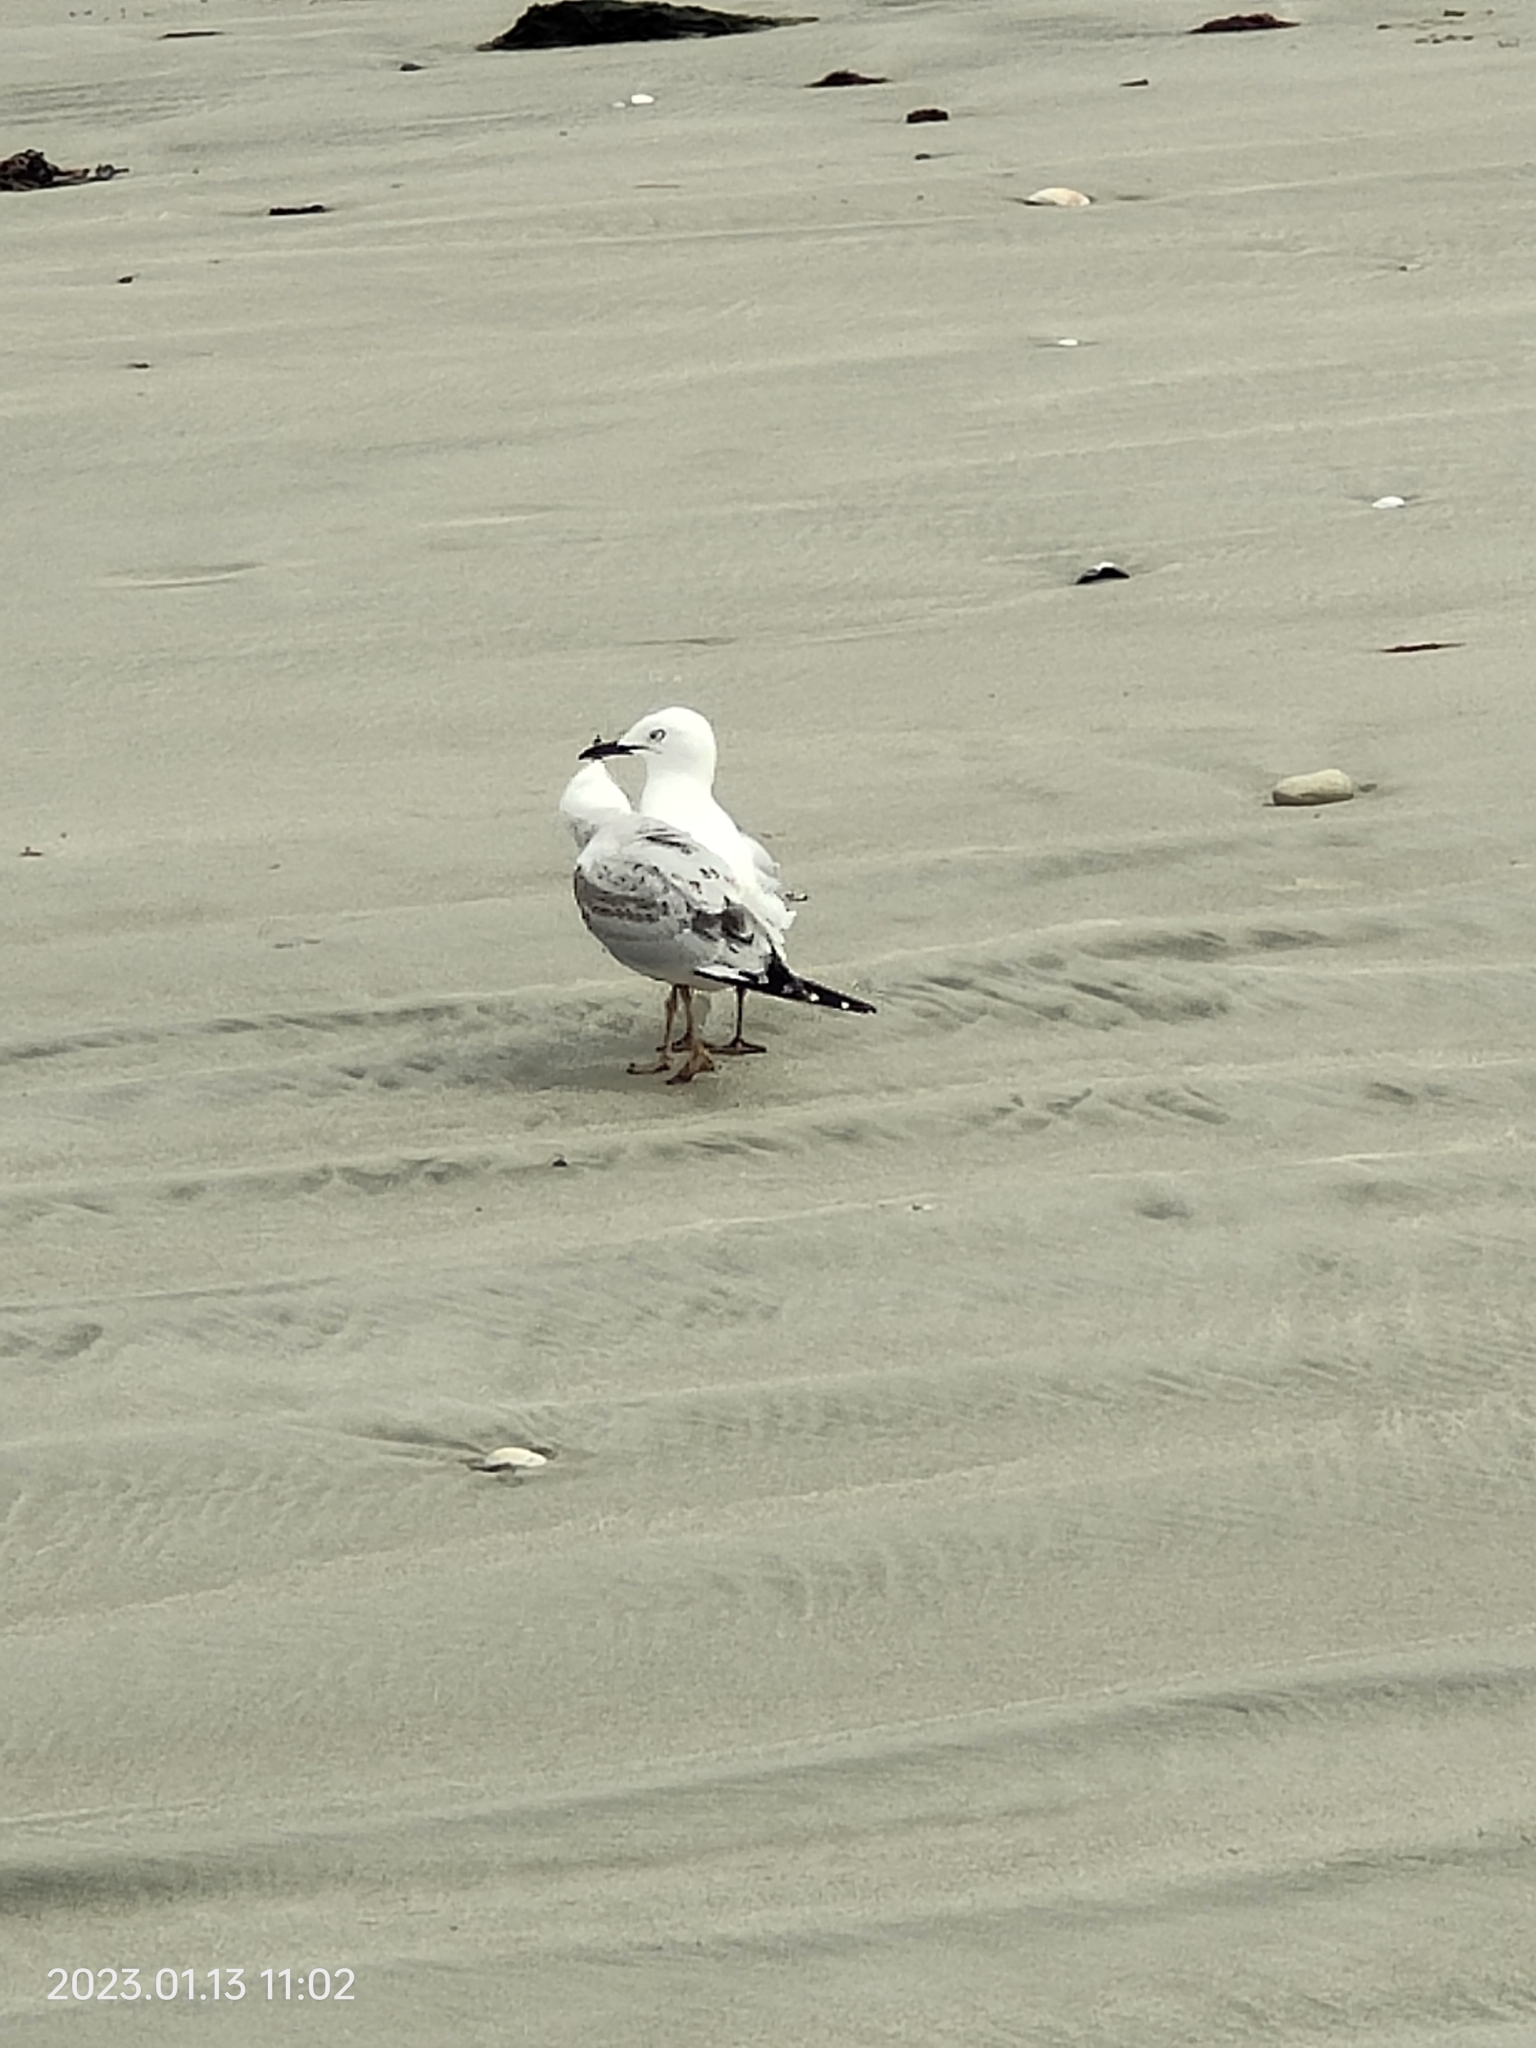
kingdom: Animalia
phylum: Chordata
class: Aves
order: Charadriiformes
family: Laridae
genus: Chroicocephalus
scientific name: Chroicocephalus bulleri
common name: Black-billed gull
